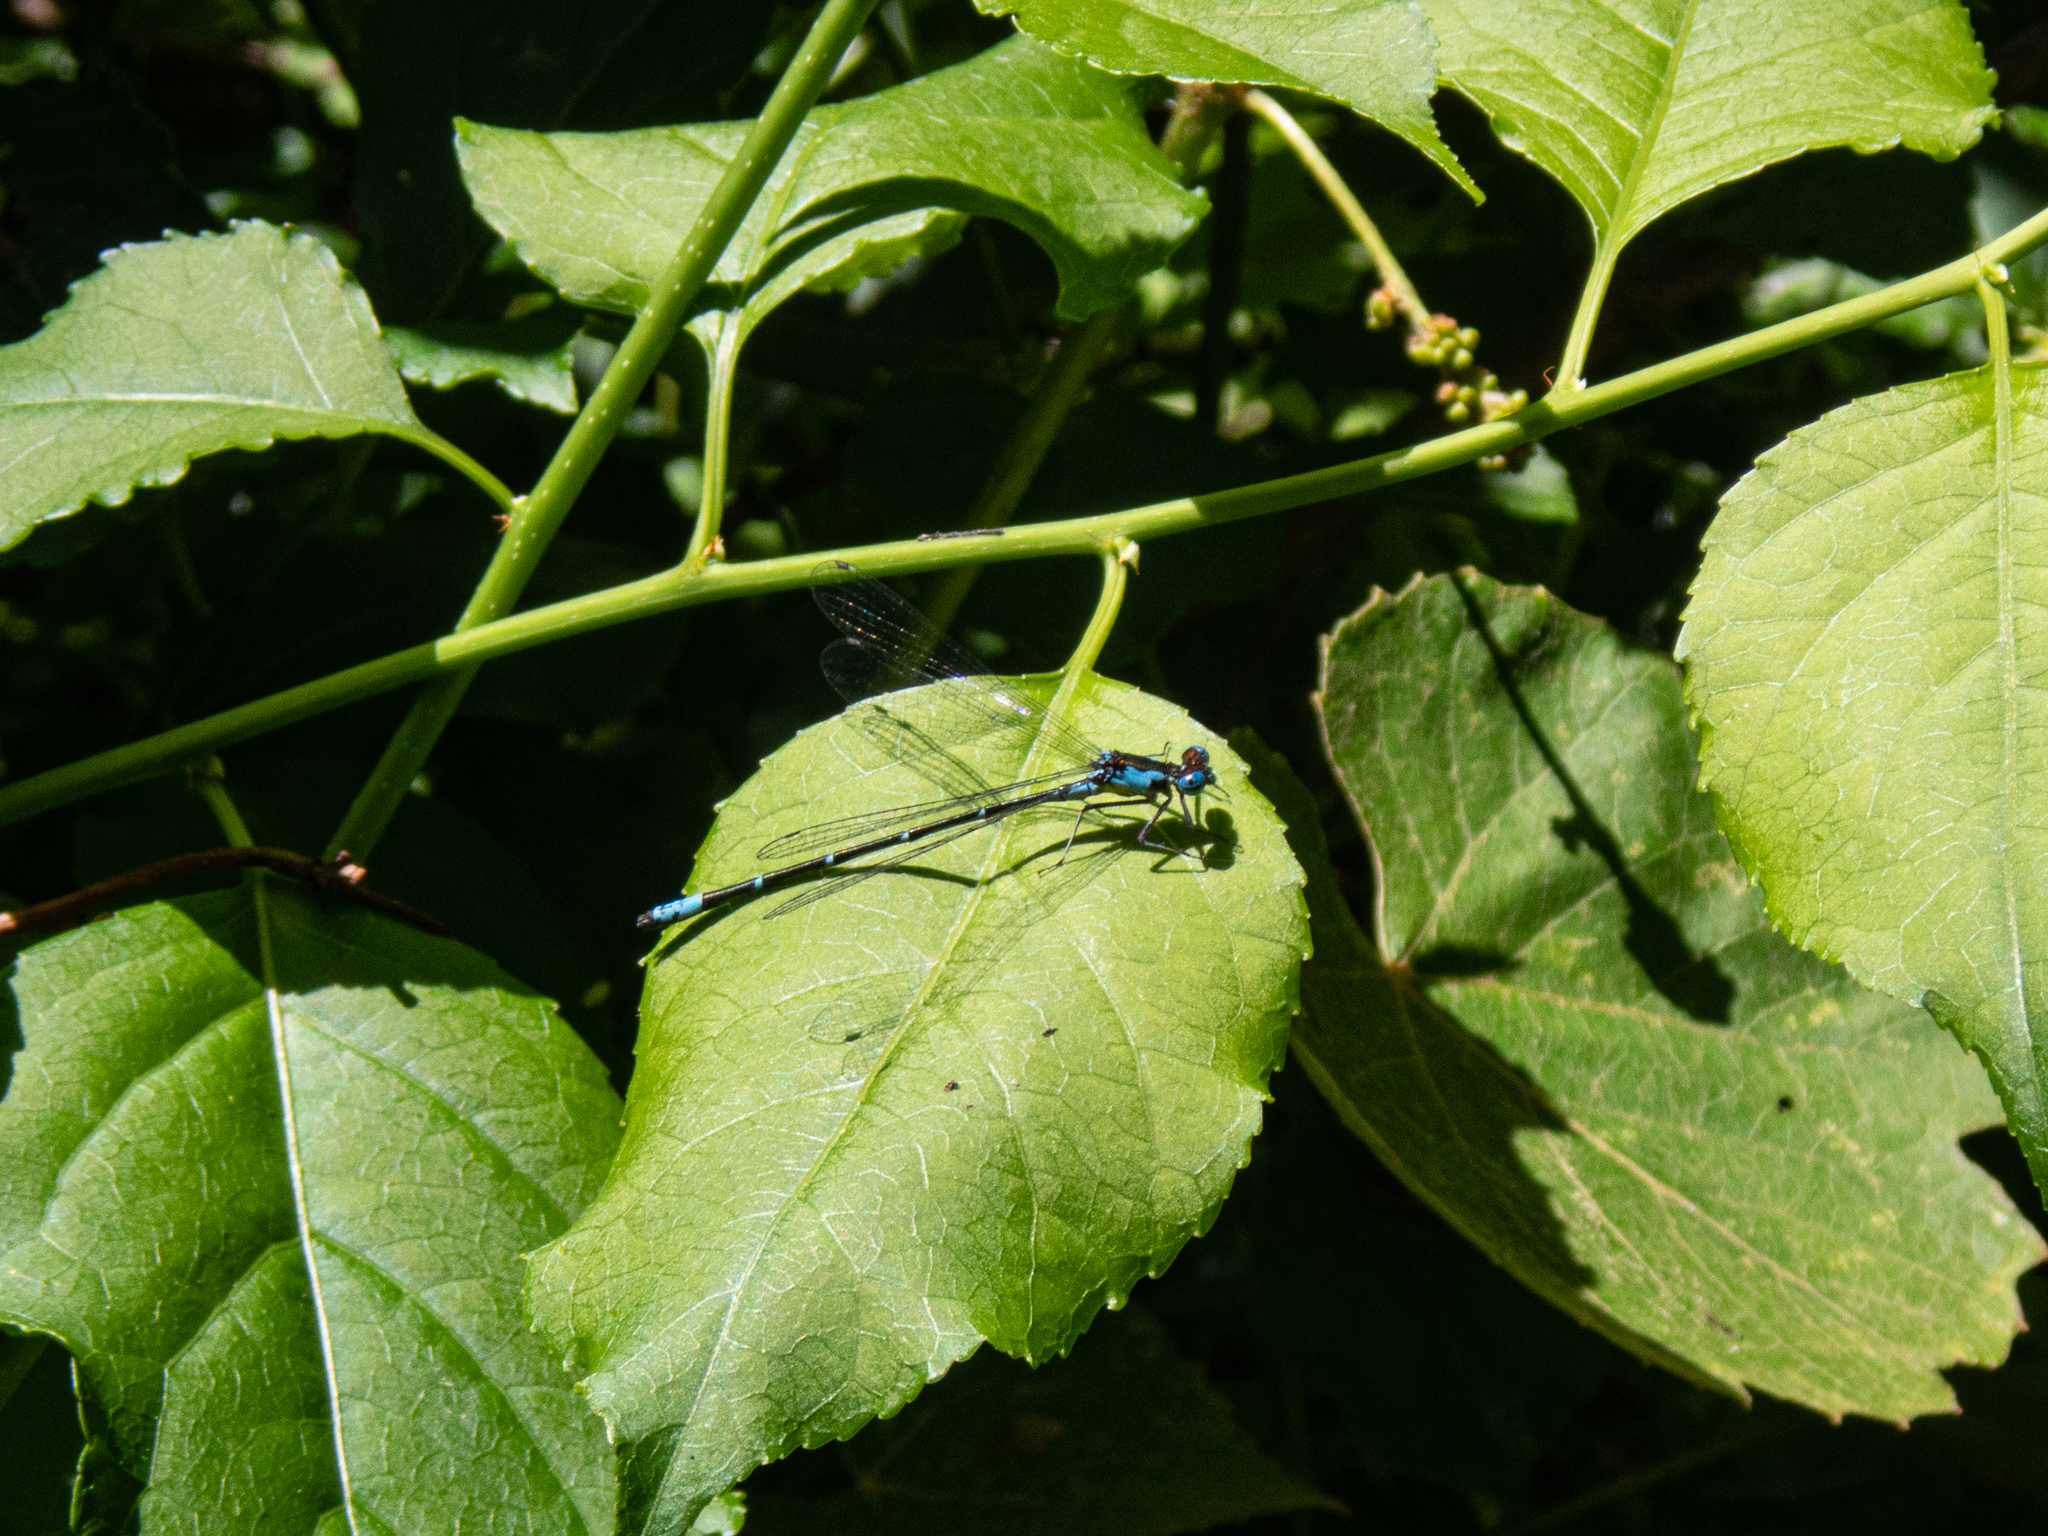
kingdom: Animalia
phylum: Arthropoda
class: Insecta
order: Odonata
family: Coenagrionidae
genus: Chromagrion
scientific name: Chromagrion conditum
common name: Aurora damsel
